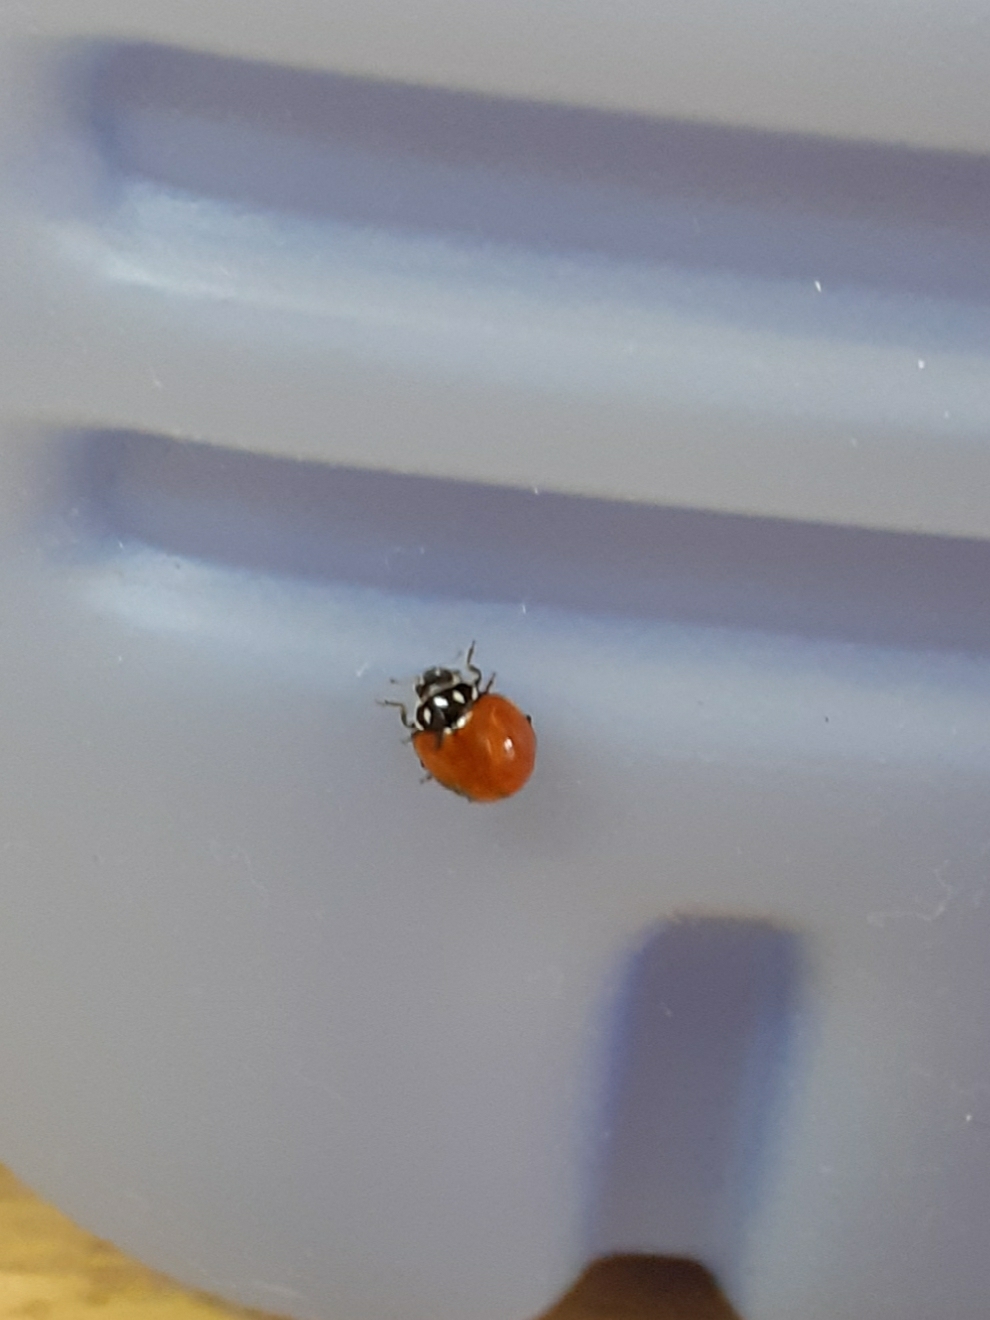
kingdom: Animalia
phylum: Arthropoda
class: Insecta
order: Coleoptera
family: Coccinellidae
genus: Cycloneda
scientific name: Cycloneda emarginata
